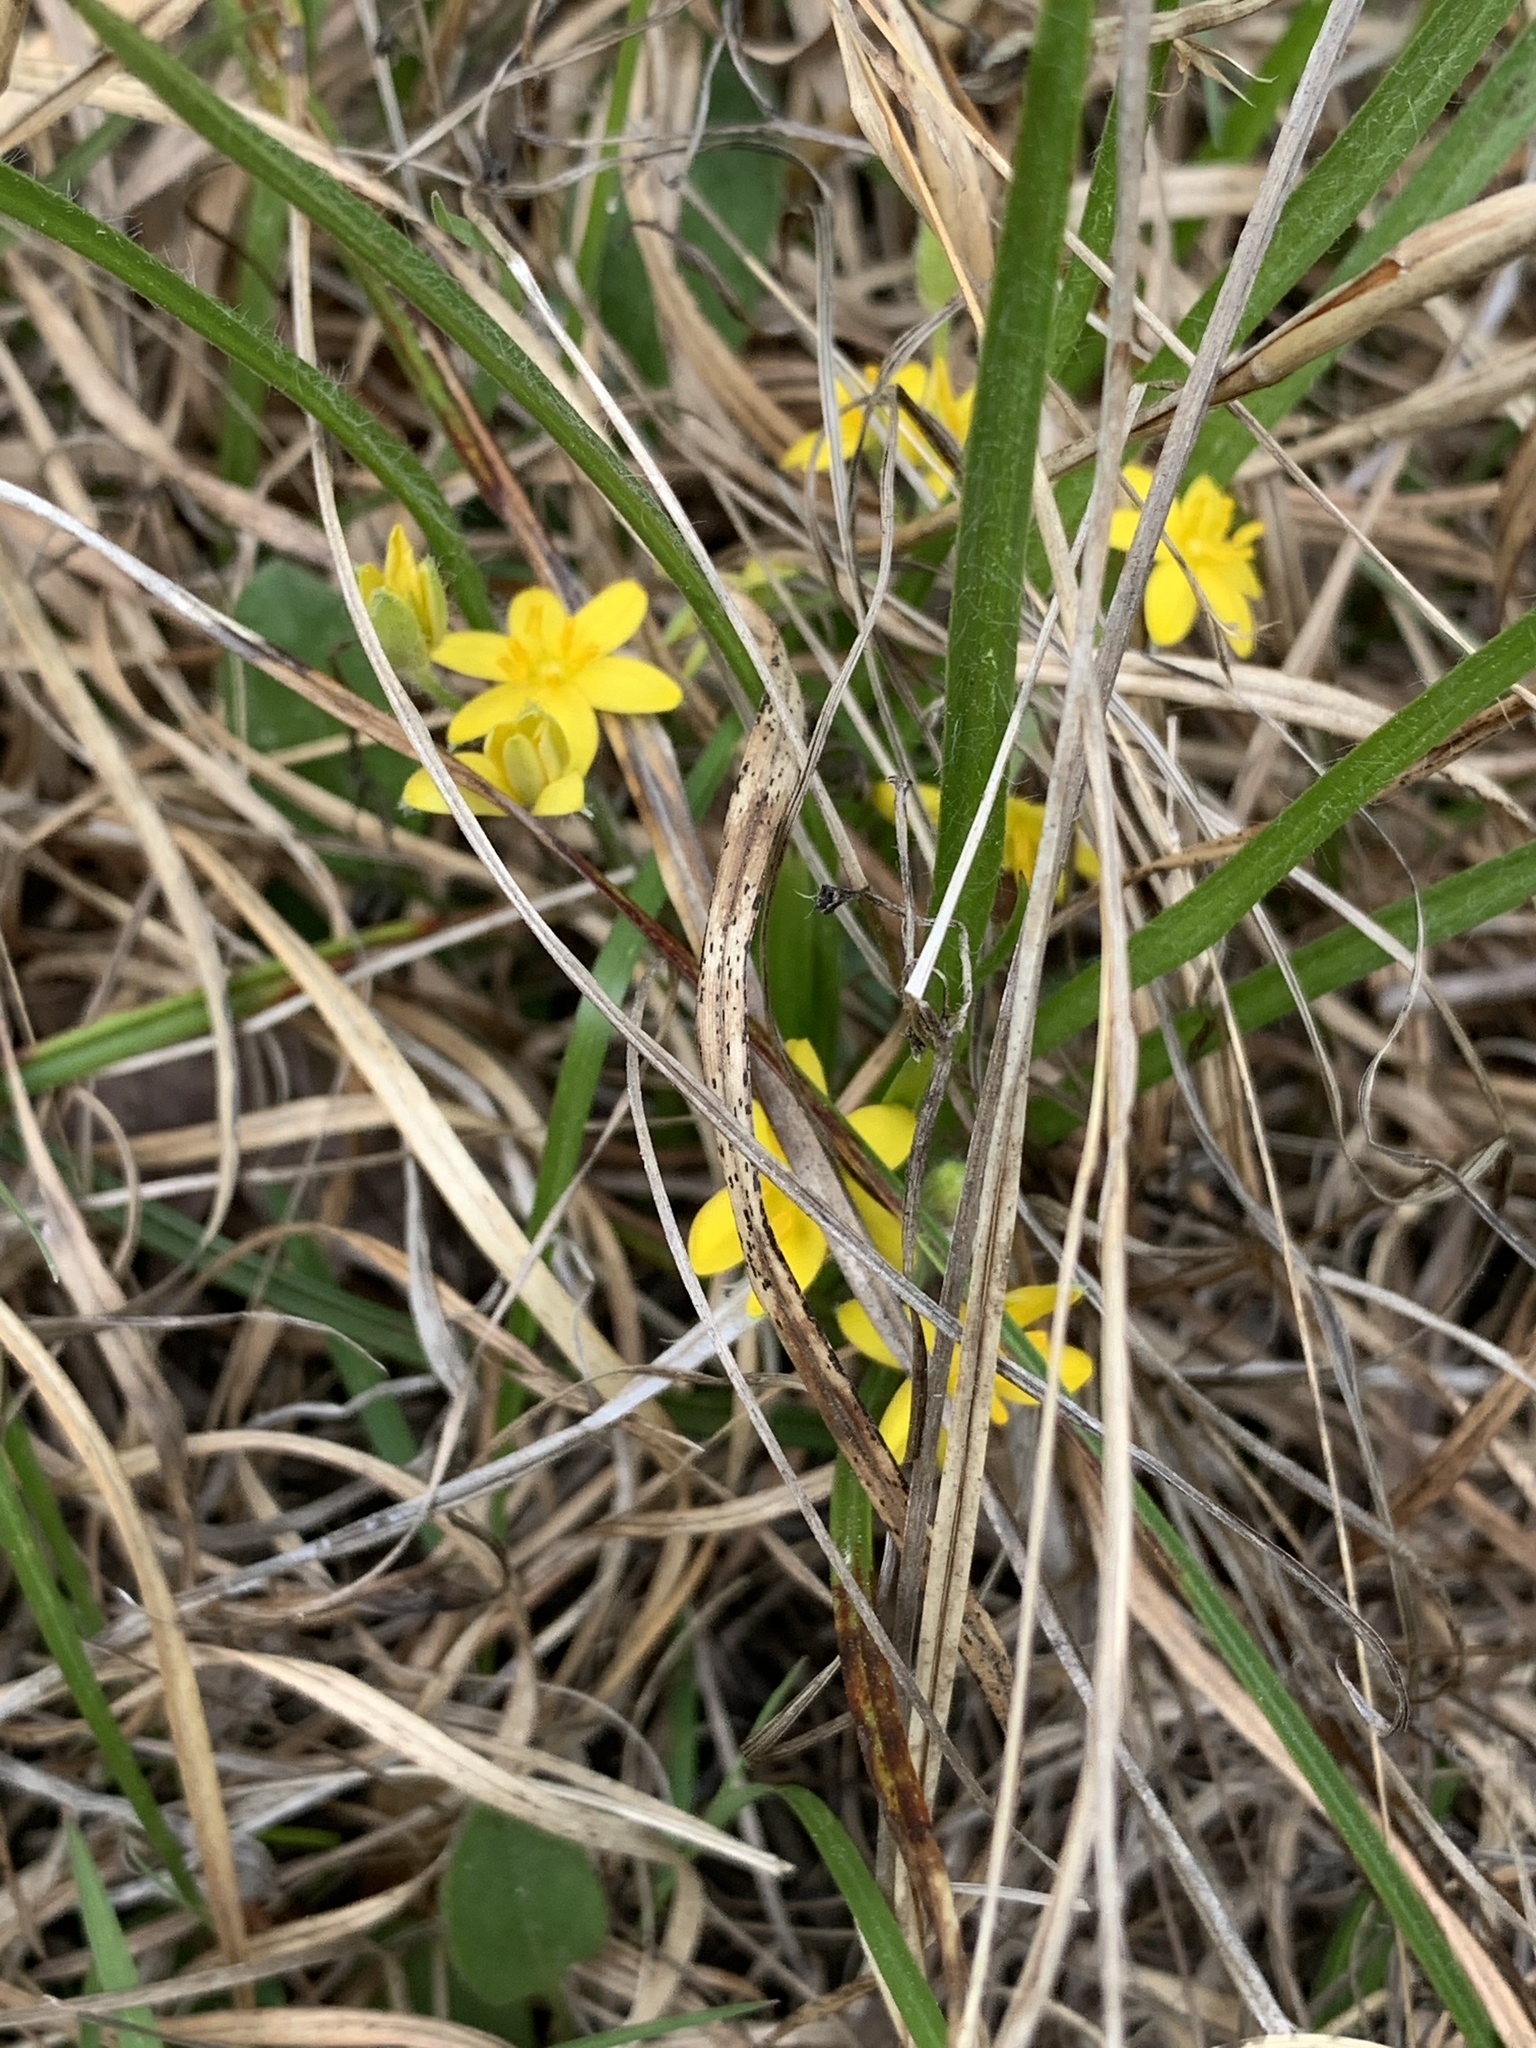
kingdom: Plantae
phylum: Tracheophyta
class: Liliopsida
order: Asparagales
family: Hypoxidaceae
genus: Hypoxis
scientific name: Hypoxis hirsuta
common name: Common goldstar
